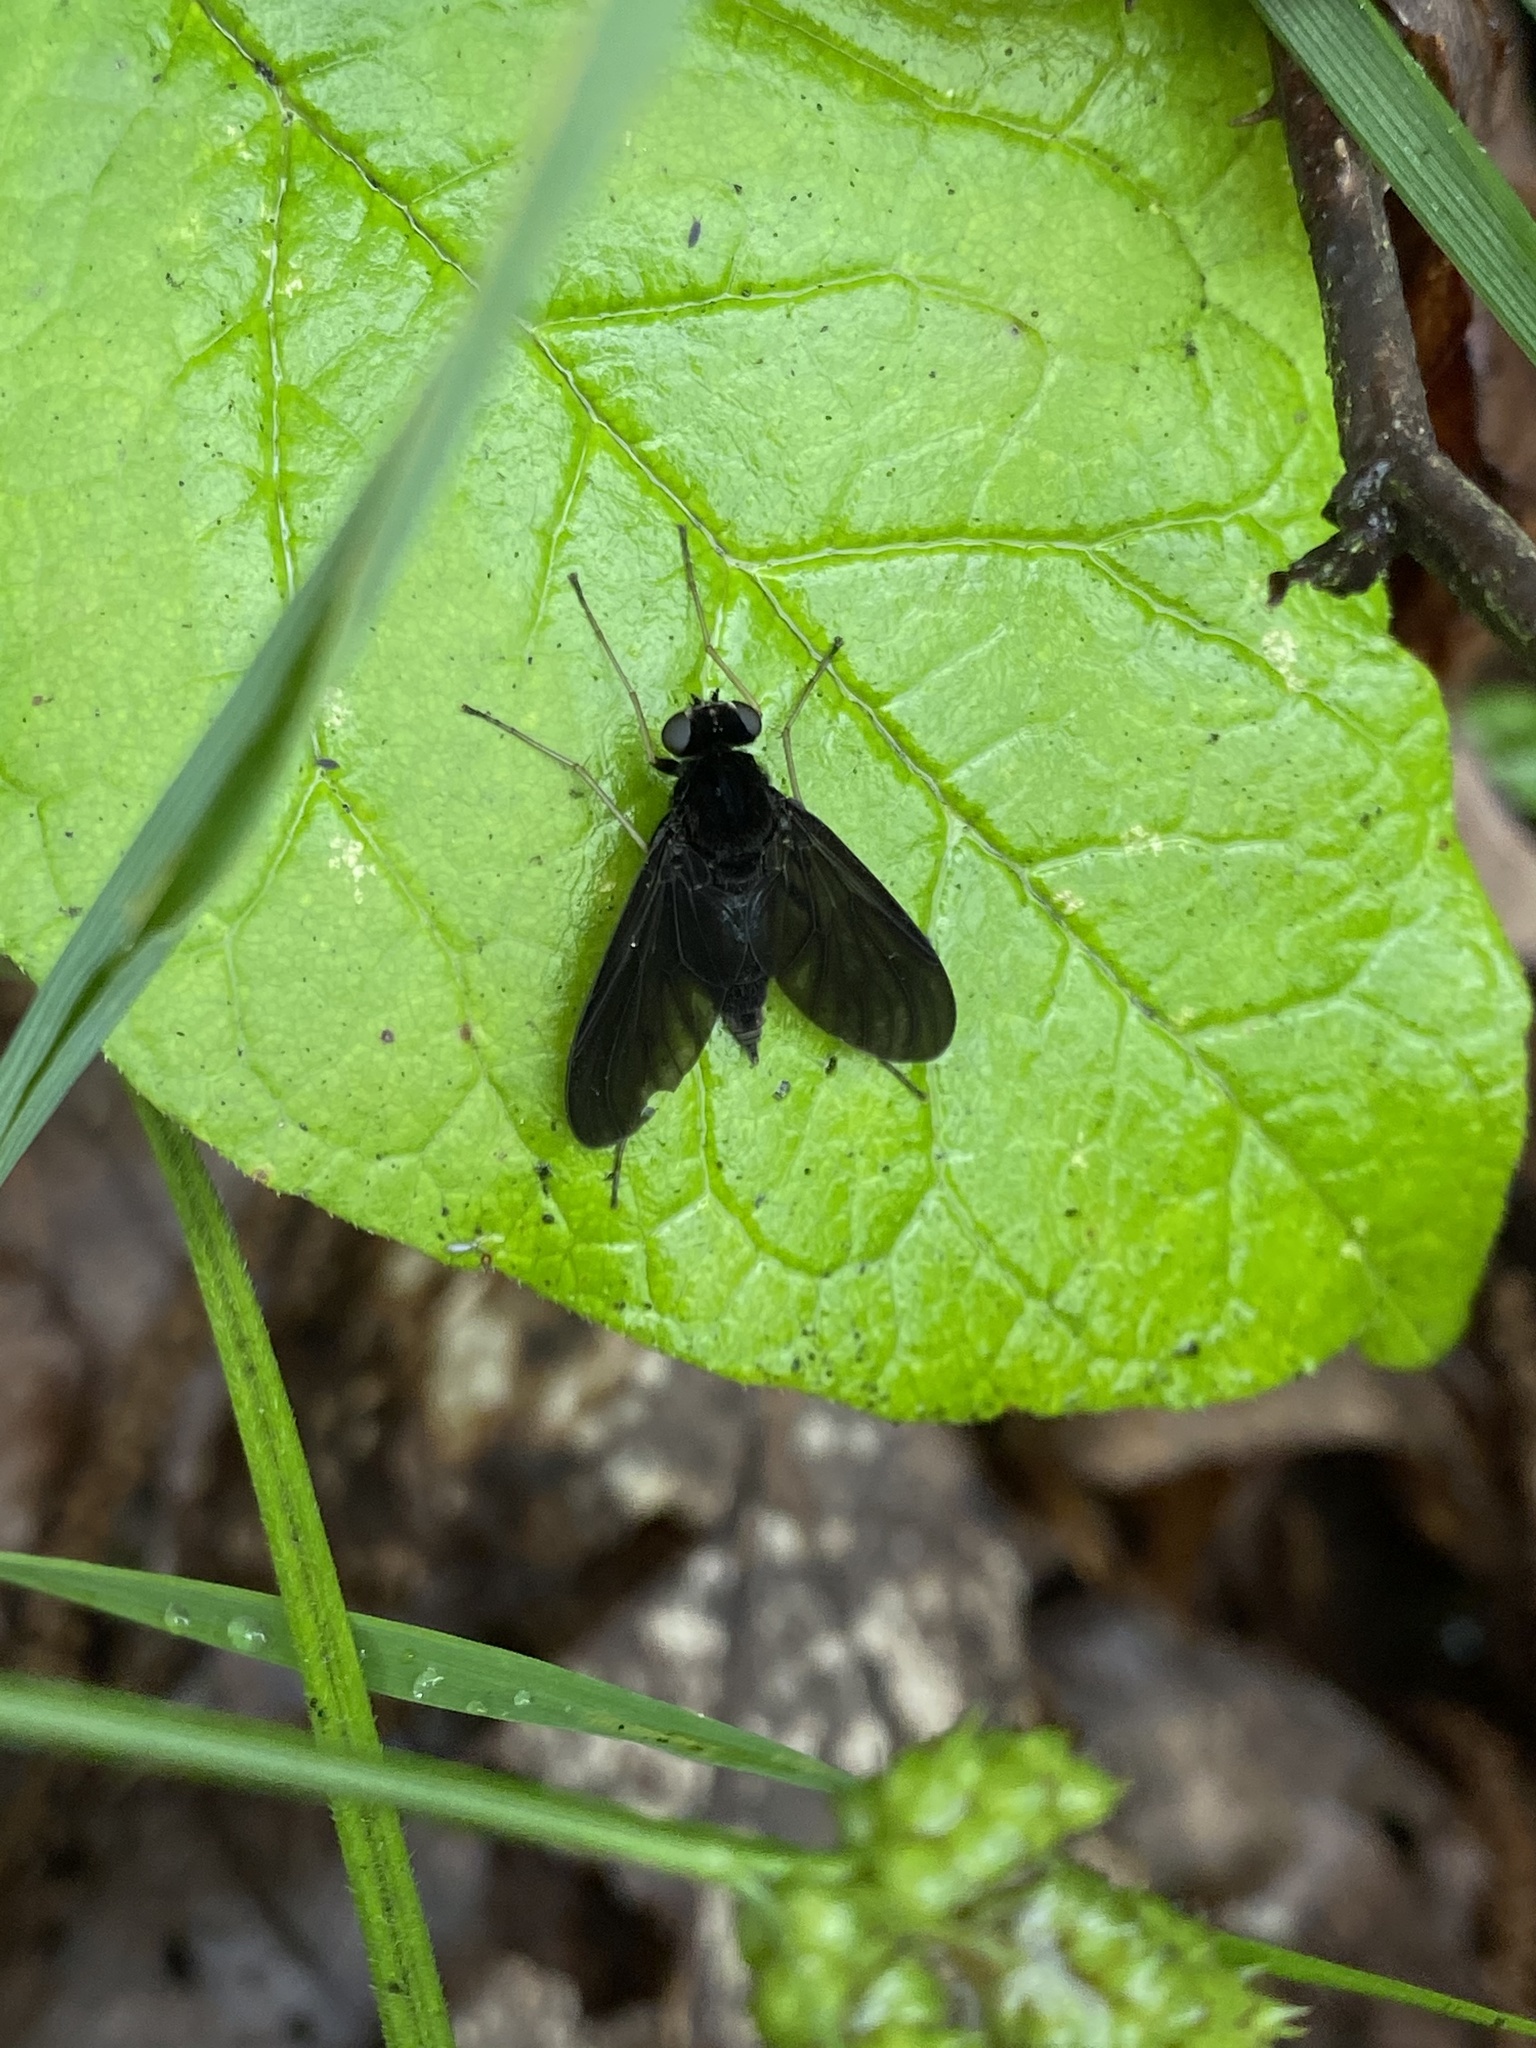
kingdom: Animalia
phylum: Arthropoda
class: Insecta
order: Diptera
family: Rhagionidae
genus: Chrysopilus
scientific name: Chrysopilus velutinus
